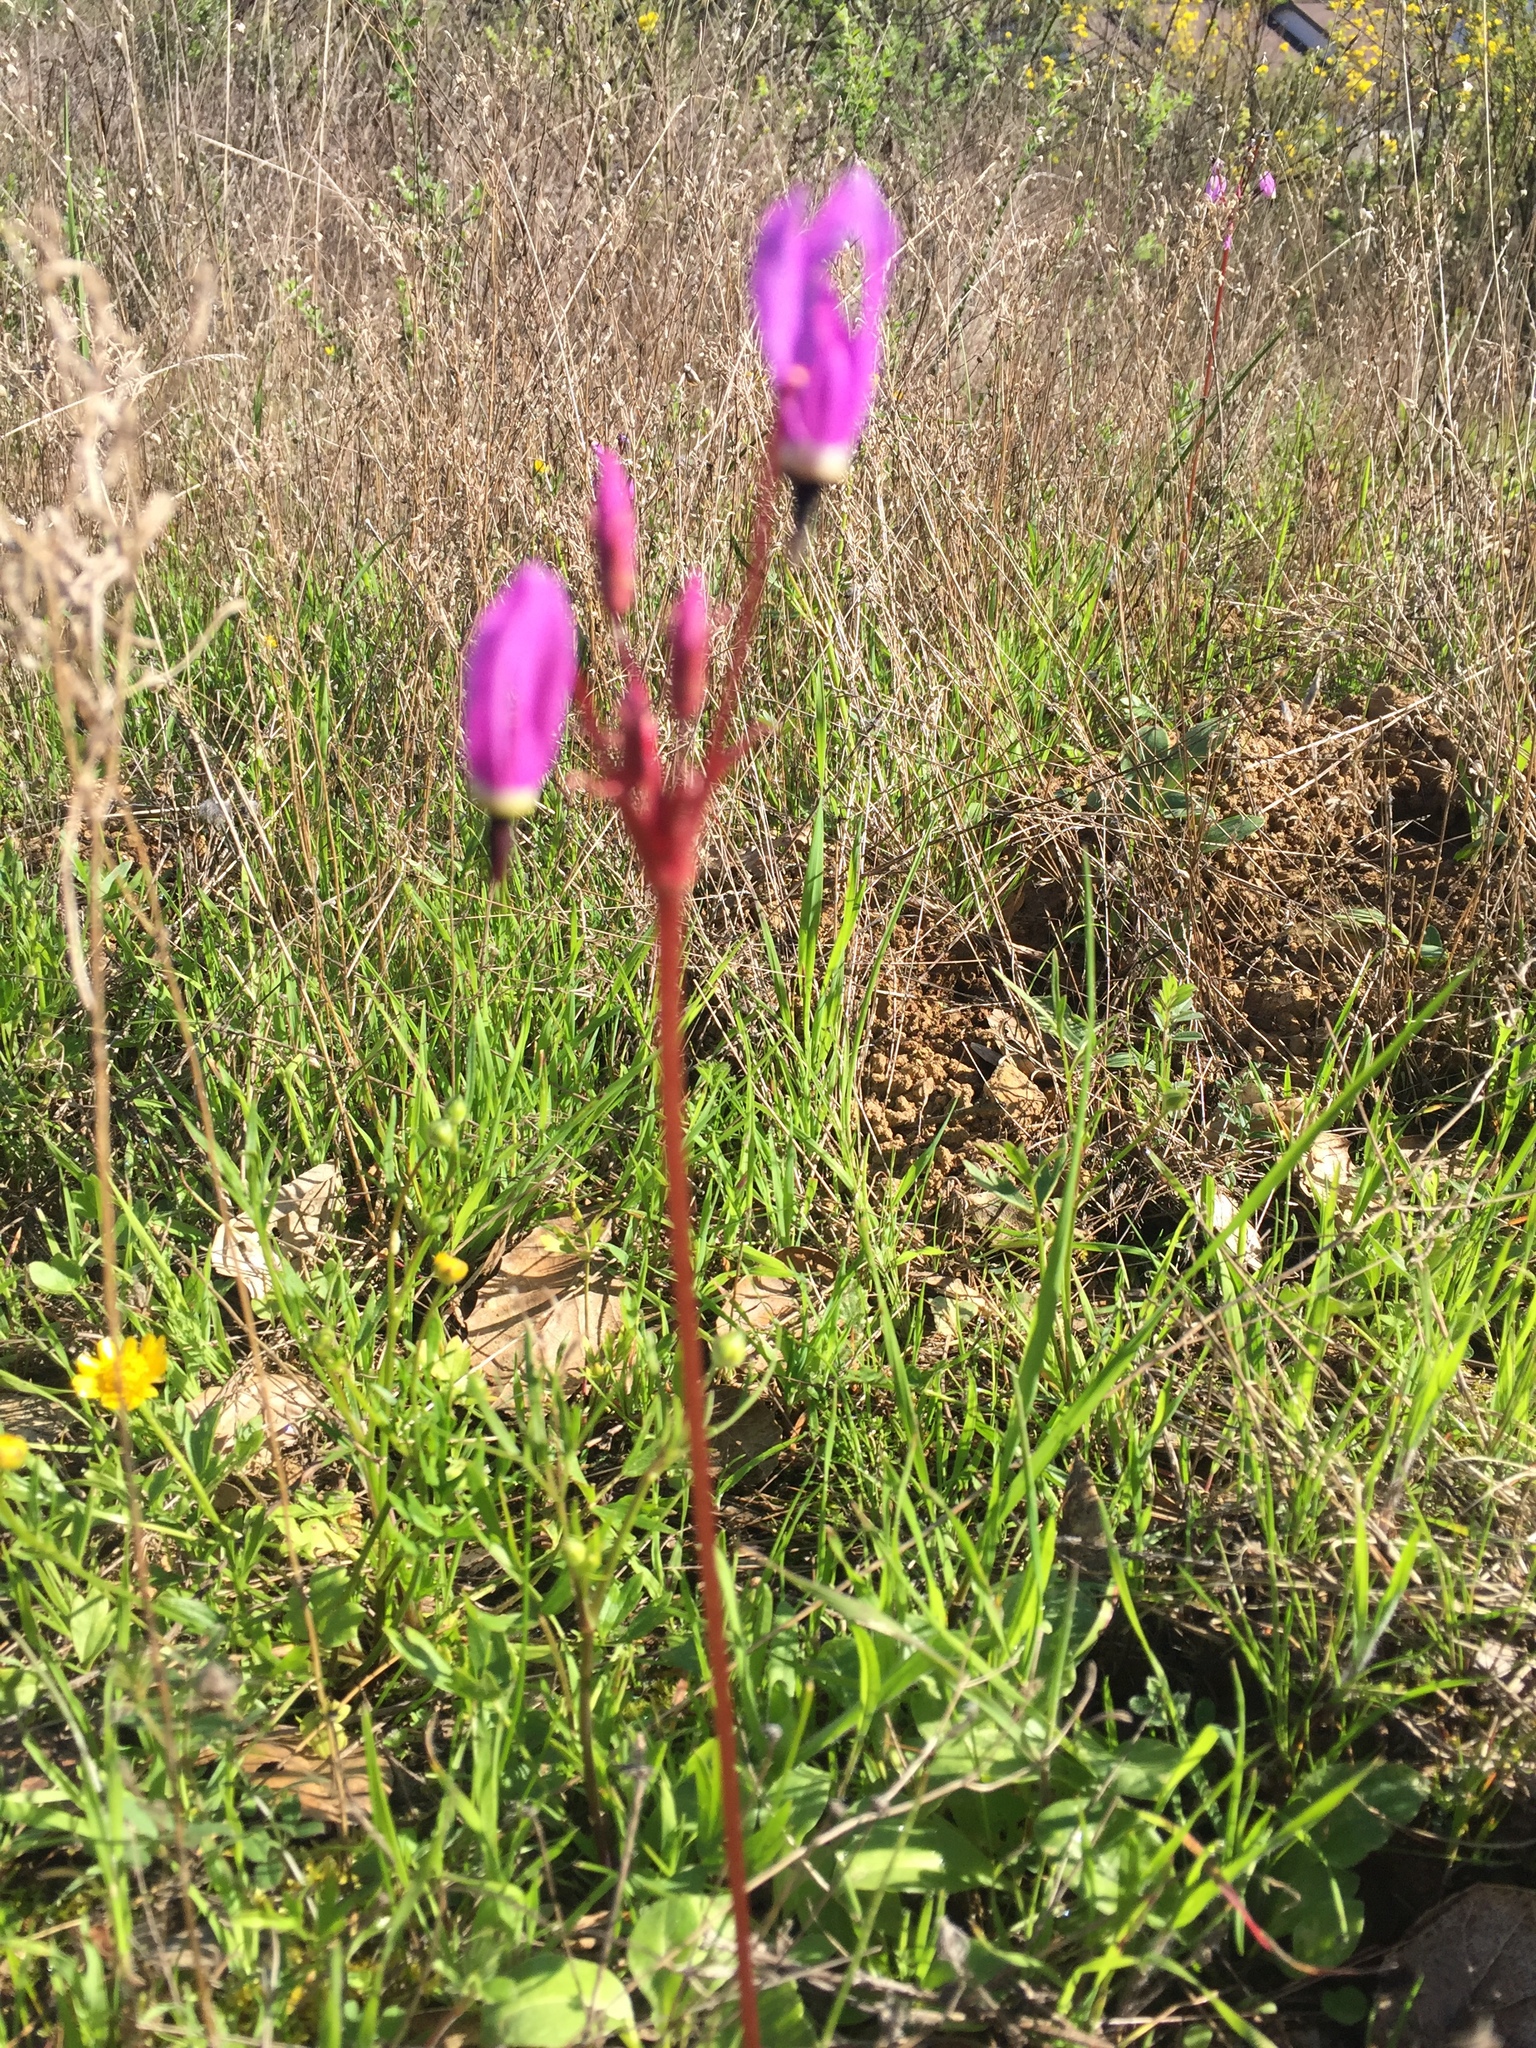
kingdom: Plantae
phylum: Tracheophyta
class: Magnoliopsida
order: Ericales
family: Primulaceae
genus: Dodecatheon
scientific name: Dodecatheon hendersonii
